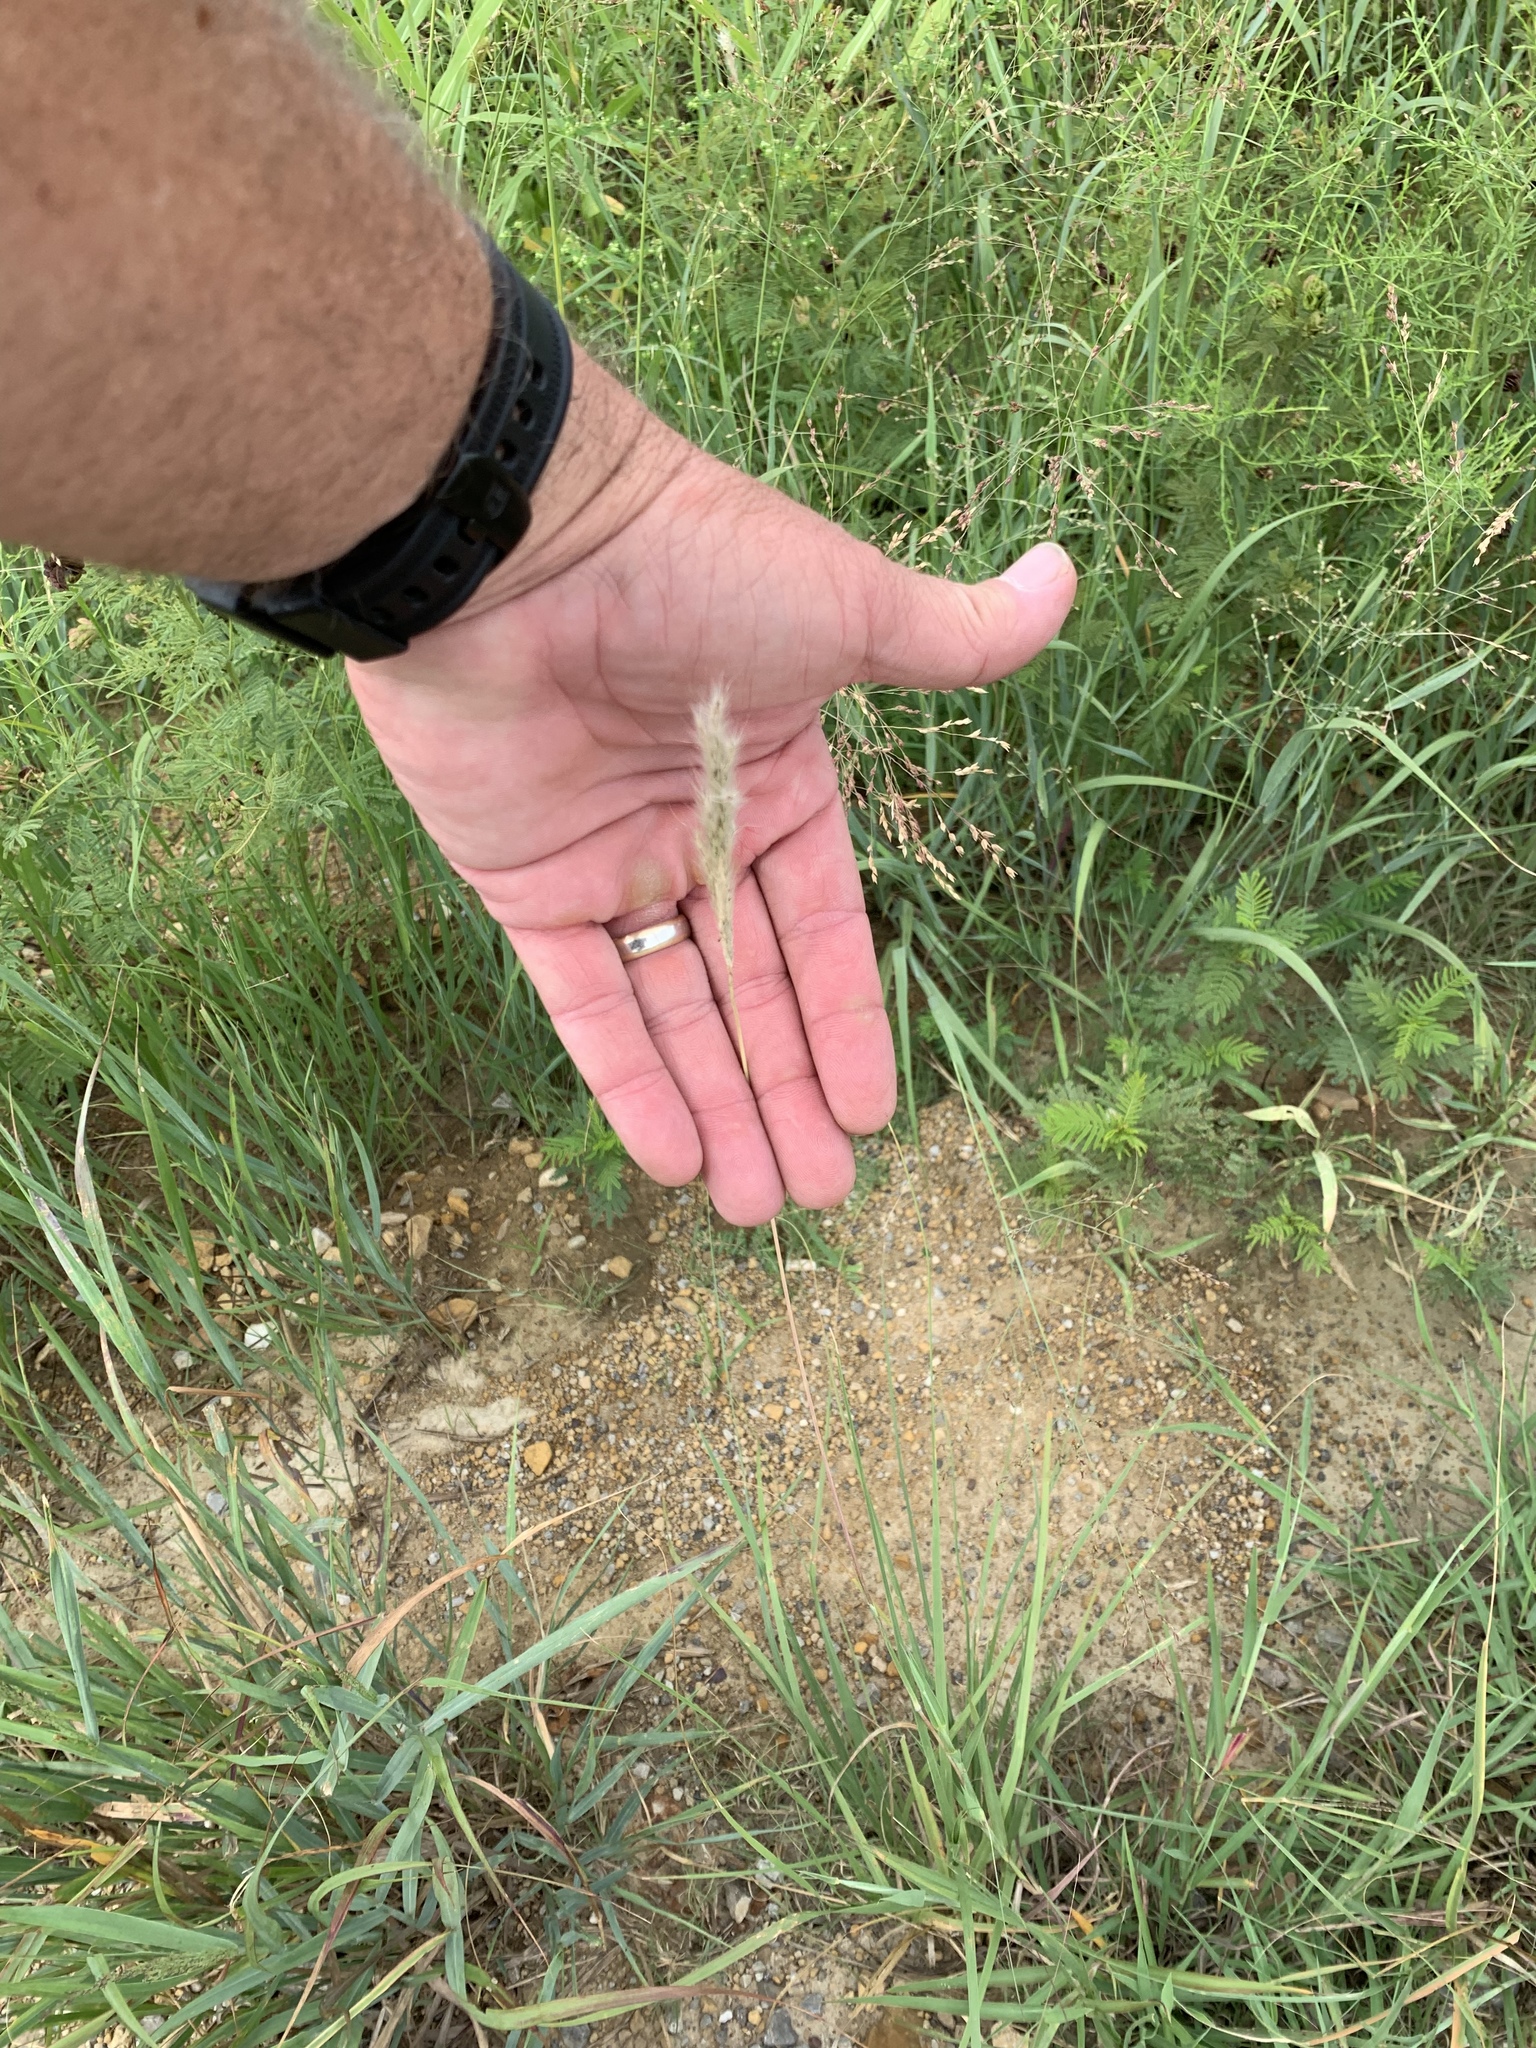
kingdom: Plantae
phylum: Tracheophyta
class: Liliopsida
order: Poales
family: Poaceae
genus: Bothriochloa
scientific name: Bothriochloa torreyana
